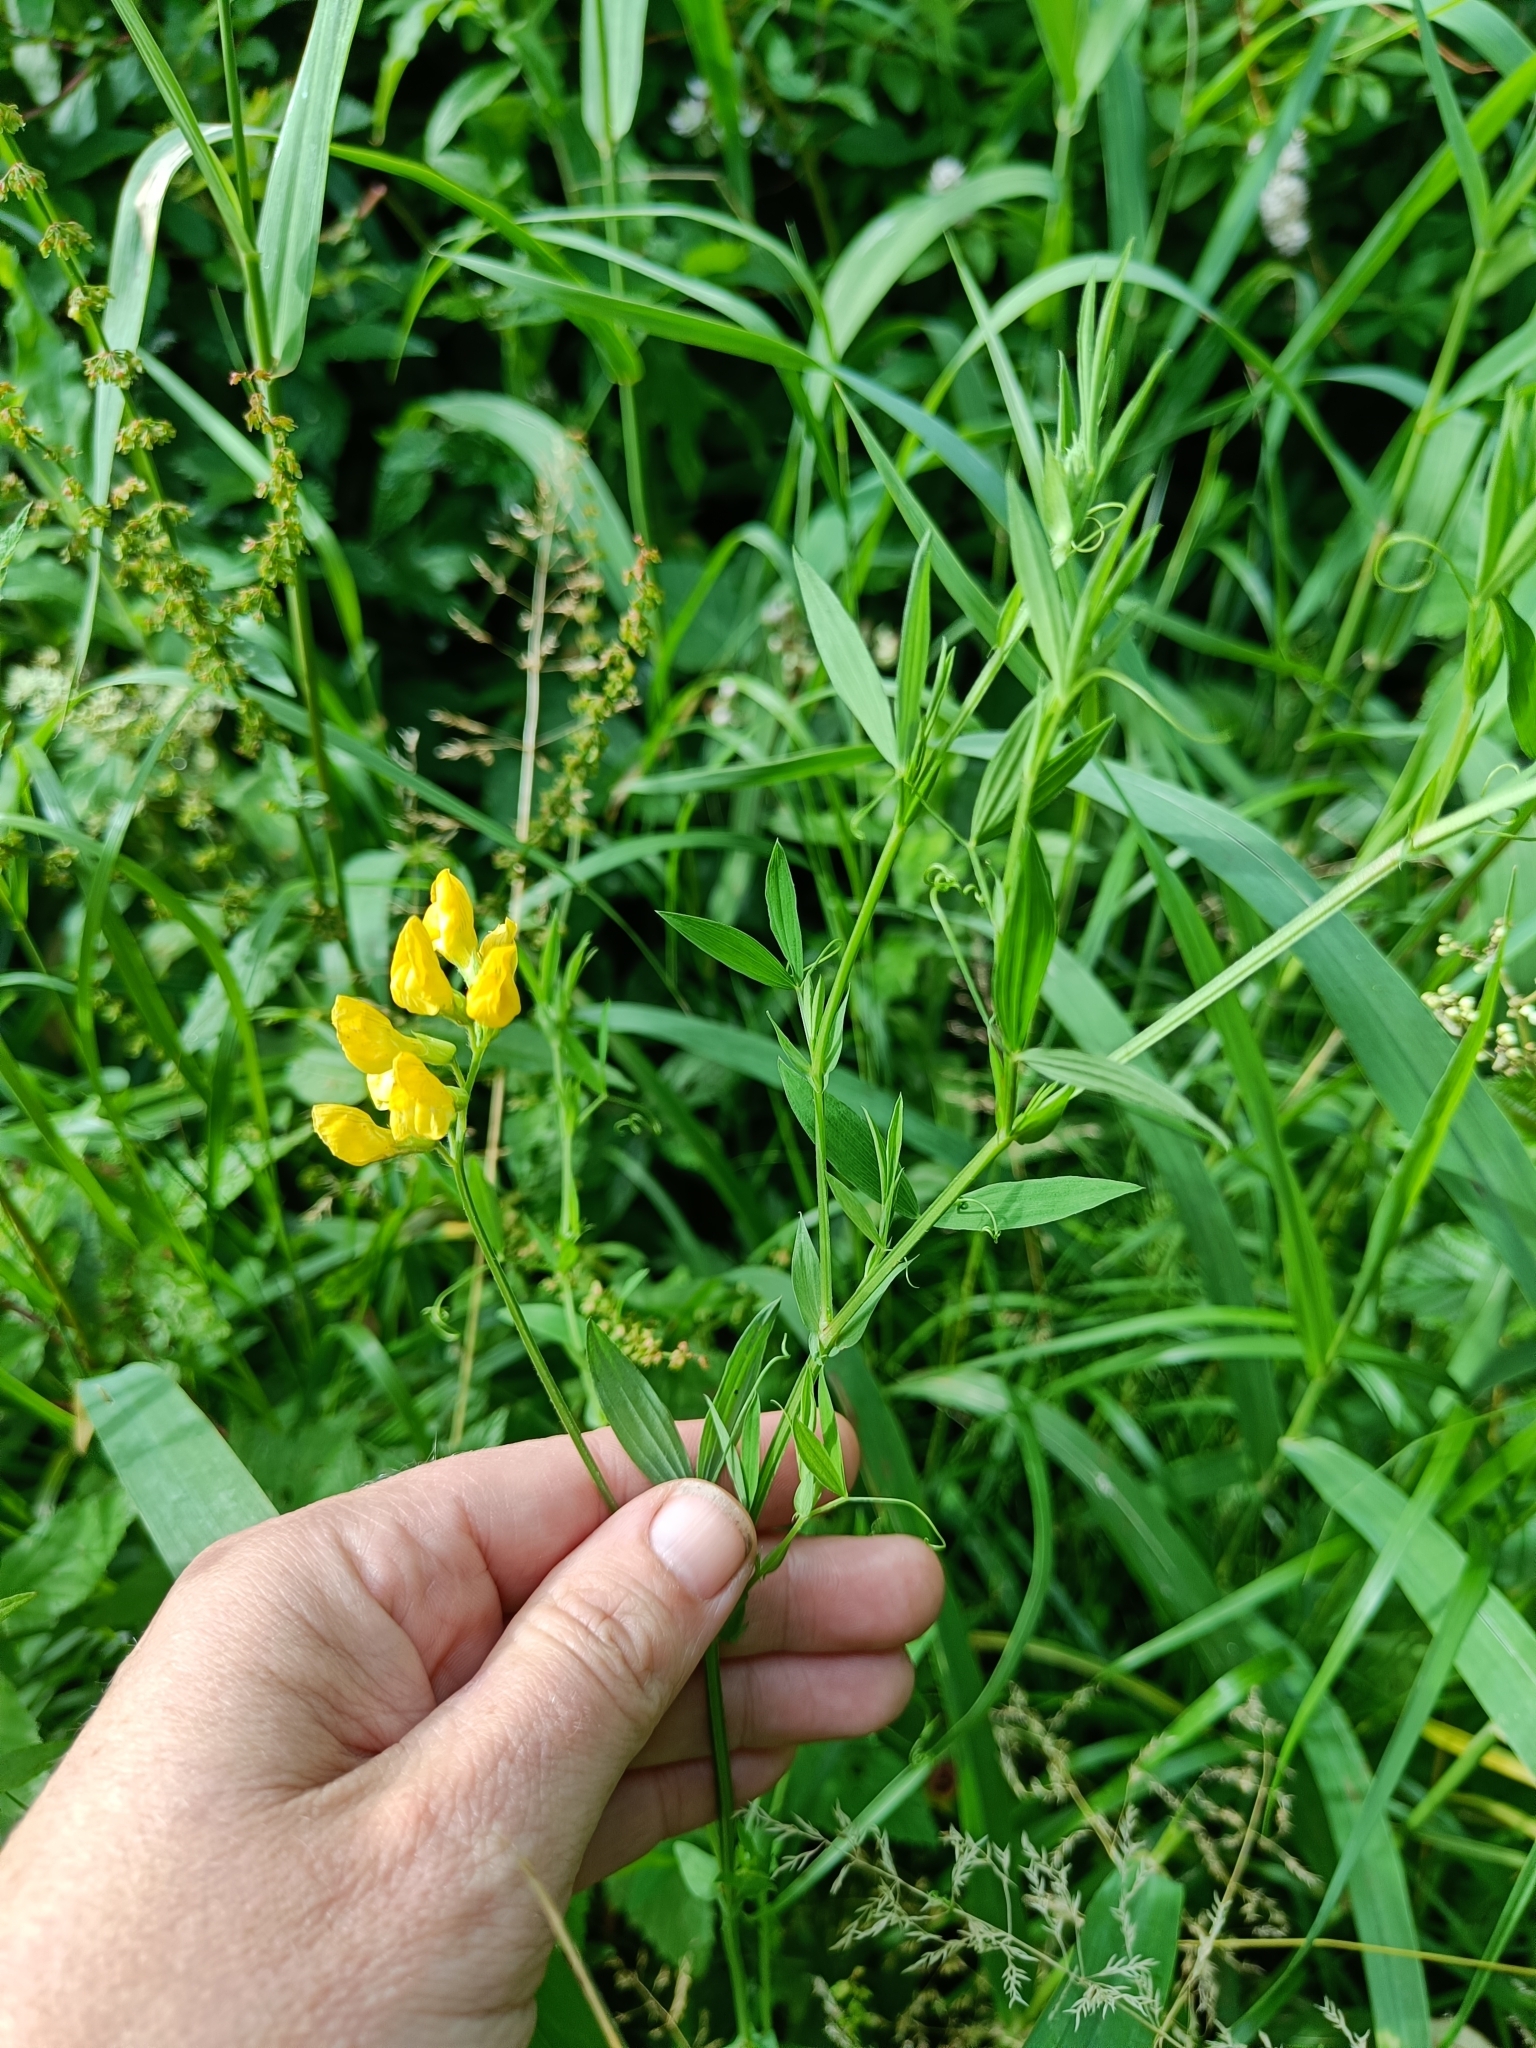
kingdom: Plantae
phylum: Tracheophyta
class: Magnoliopsida
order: Fabales
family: Fabaceae
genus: Lathyrus
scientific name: Lathyrus pratensis
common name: Meadow vetchling
